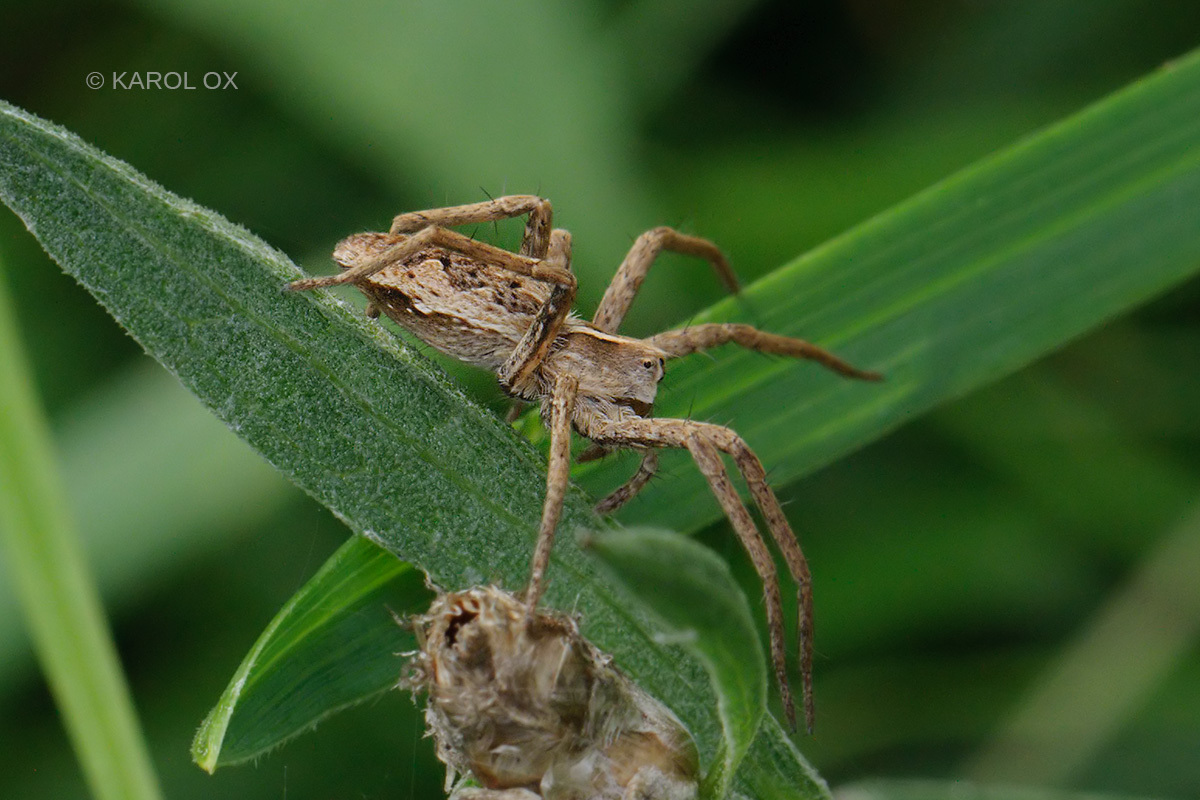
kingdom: Animalia
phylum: Arthropoda
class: Arachnida
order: Araneae
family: Pisauridae
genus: Pisaura
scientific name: Pisaura mirabilis
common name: Tent spider
